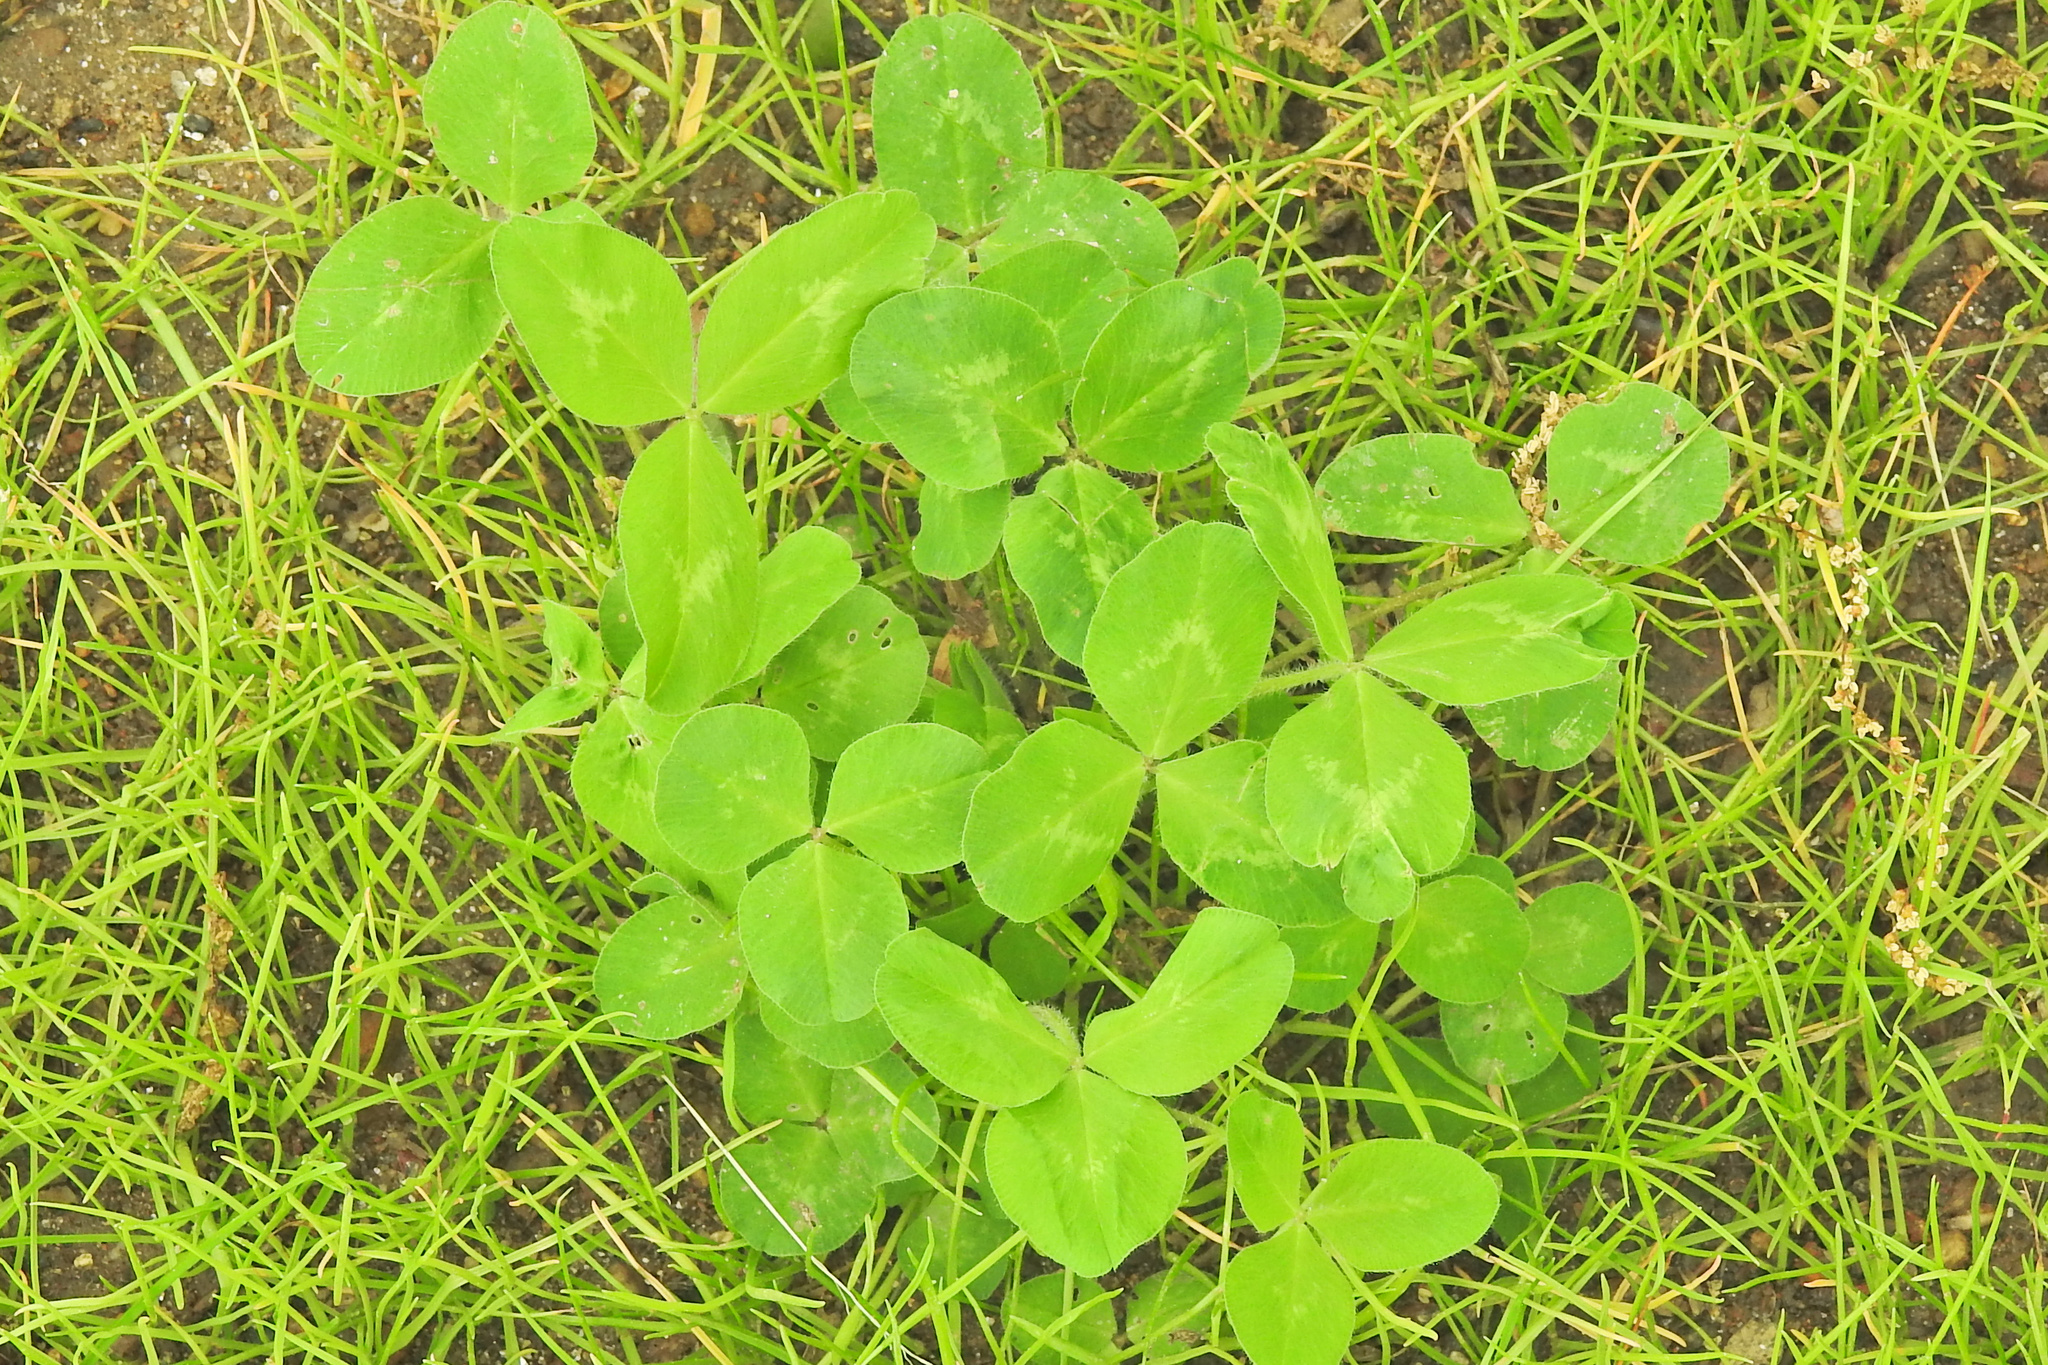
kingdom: Plantae
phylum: Tracheophyta
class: Magnoliopsida
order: Fabales
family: Fabaceae
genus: Trifolium
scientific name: Trifolium pratense
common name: Red clover
